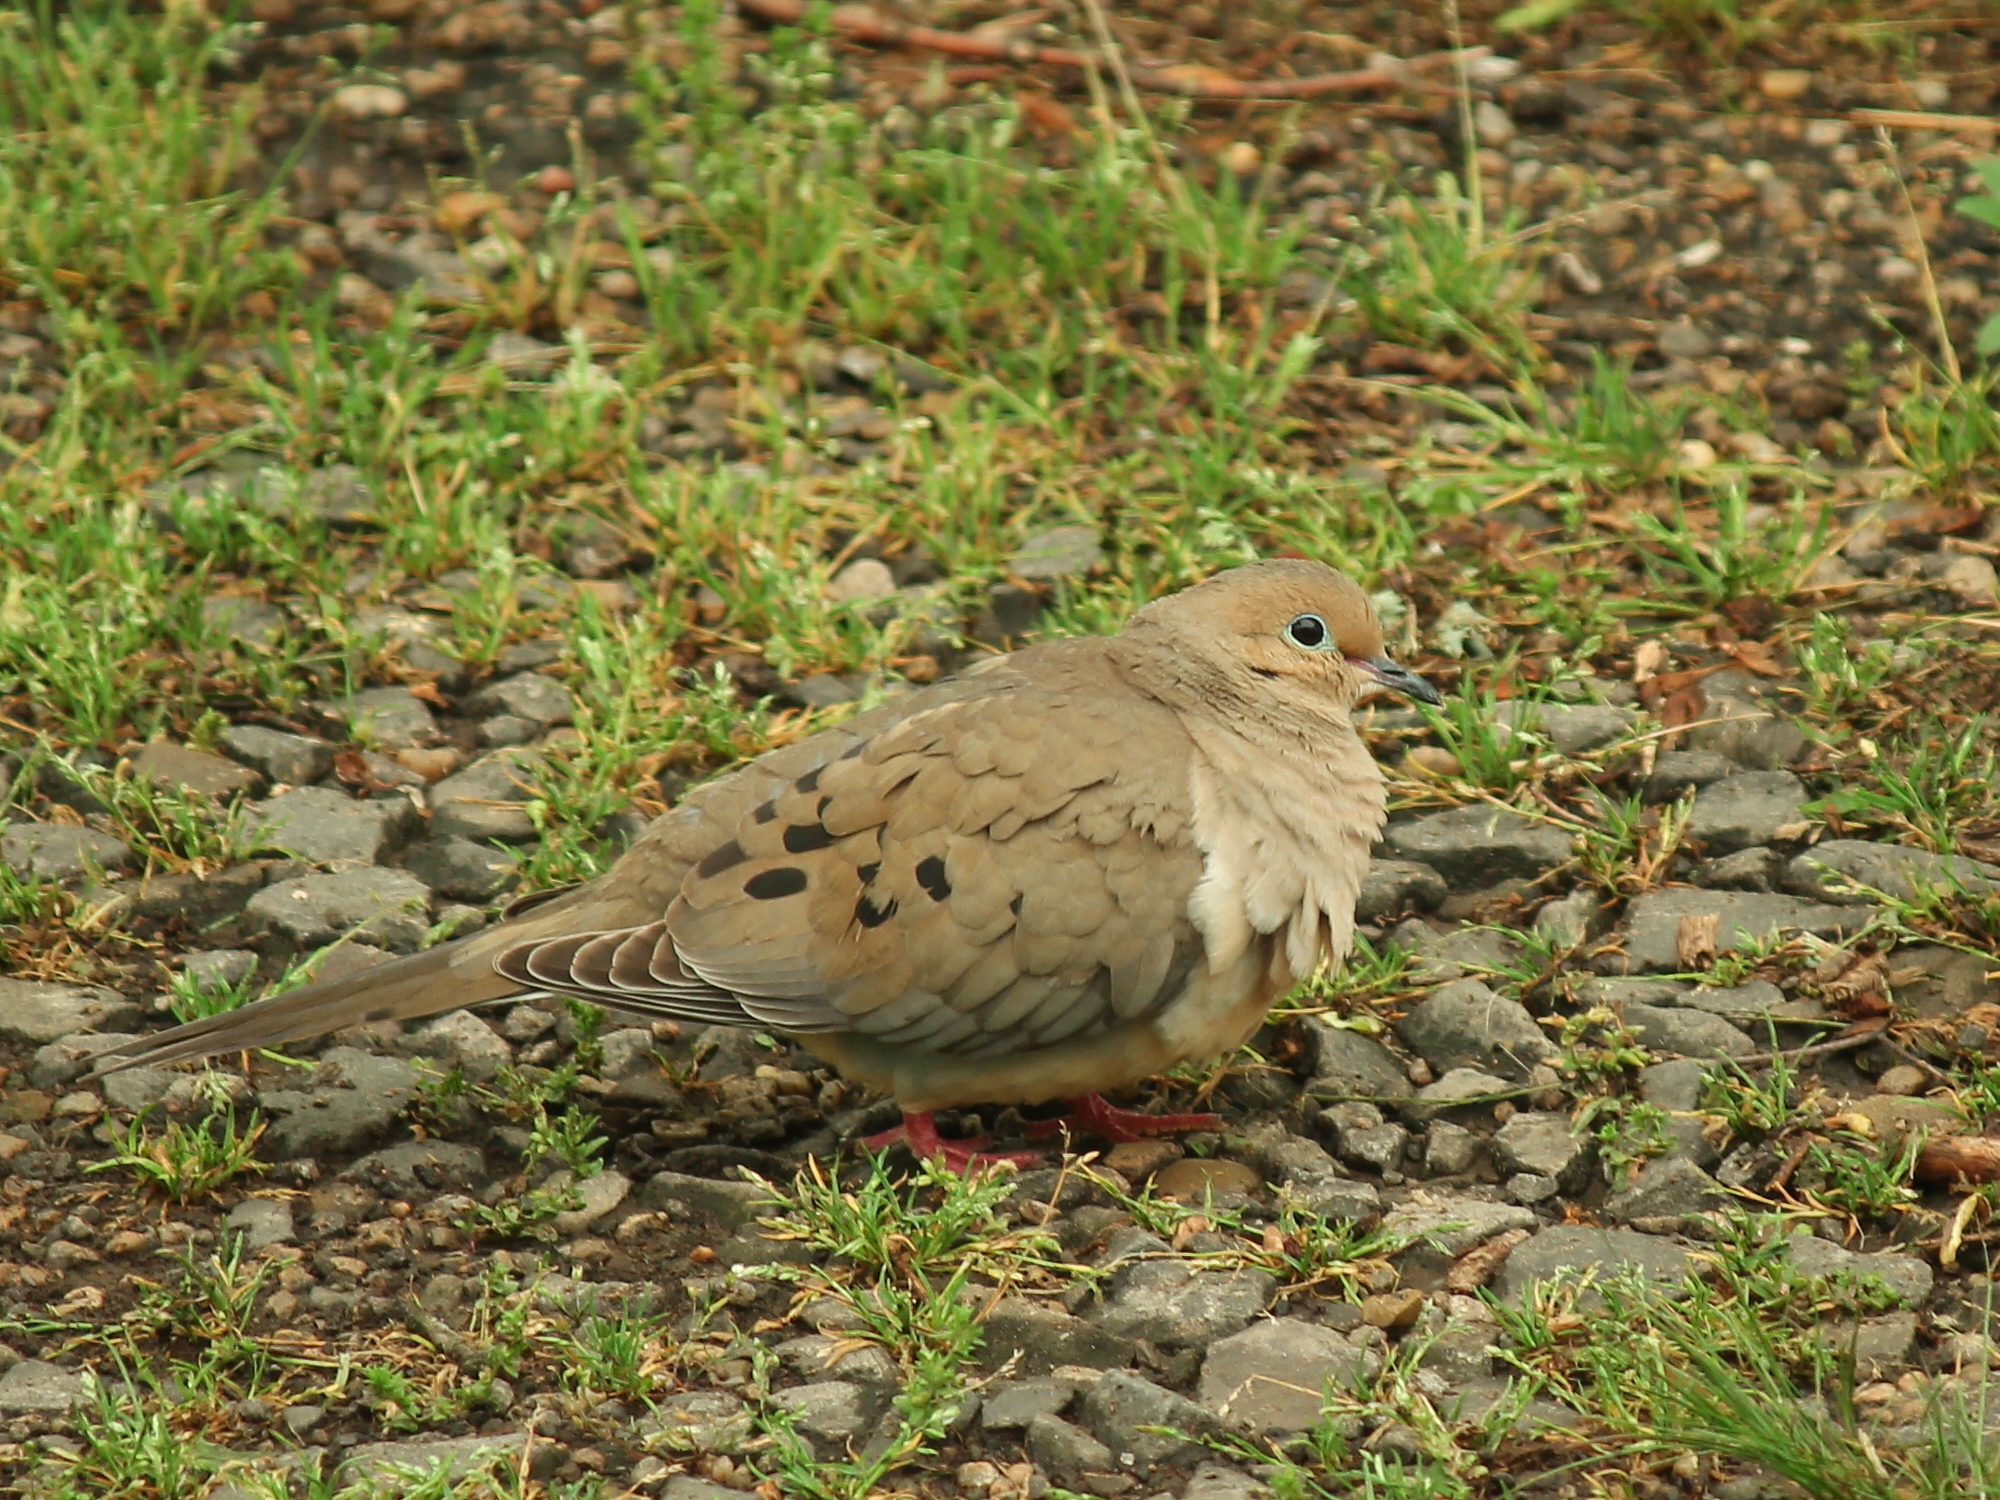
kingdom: Animalia
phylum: Chordata
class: Aves
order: Columbiformes
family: Columbidae
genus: Zenaida
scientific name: Zenaida macroura
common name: Mourning dove
